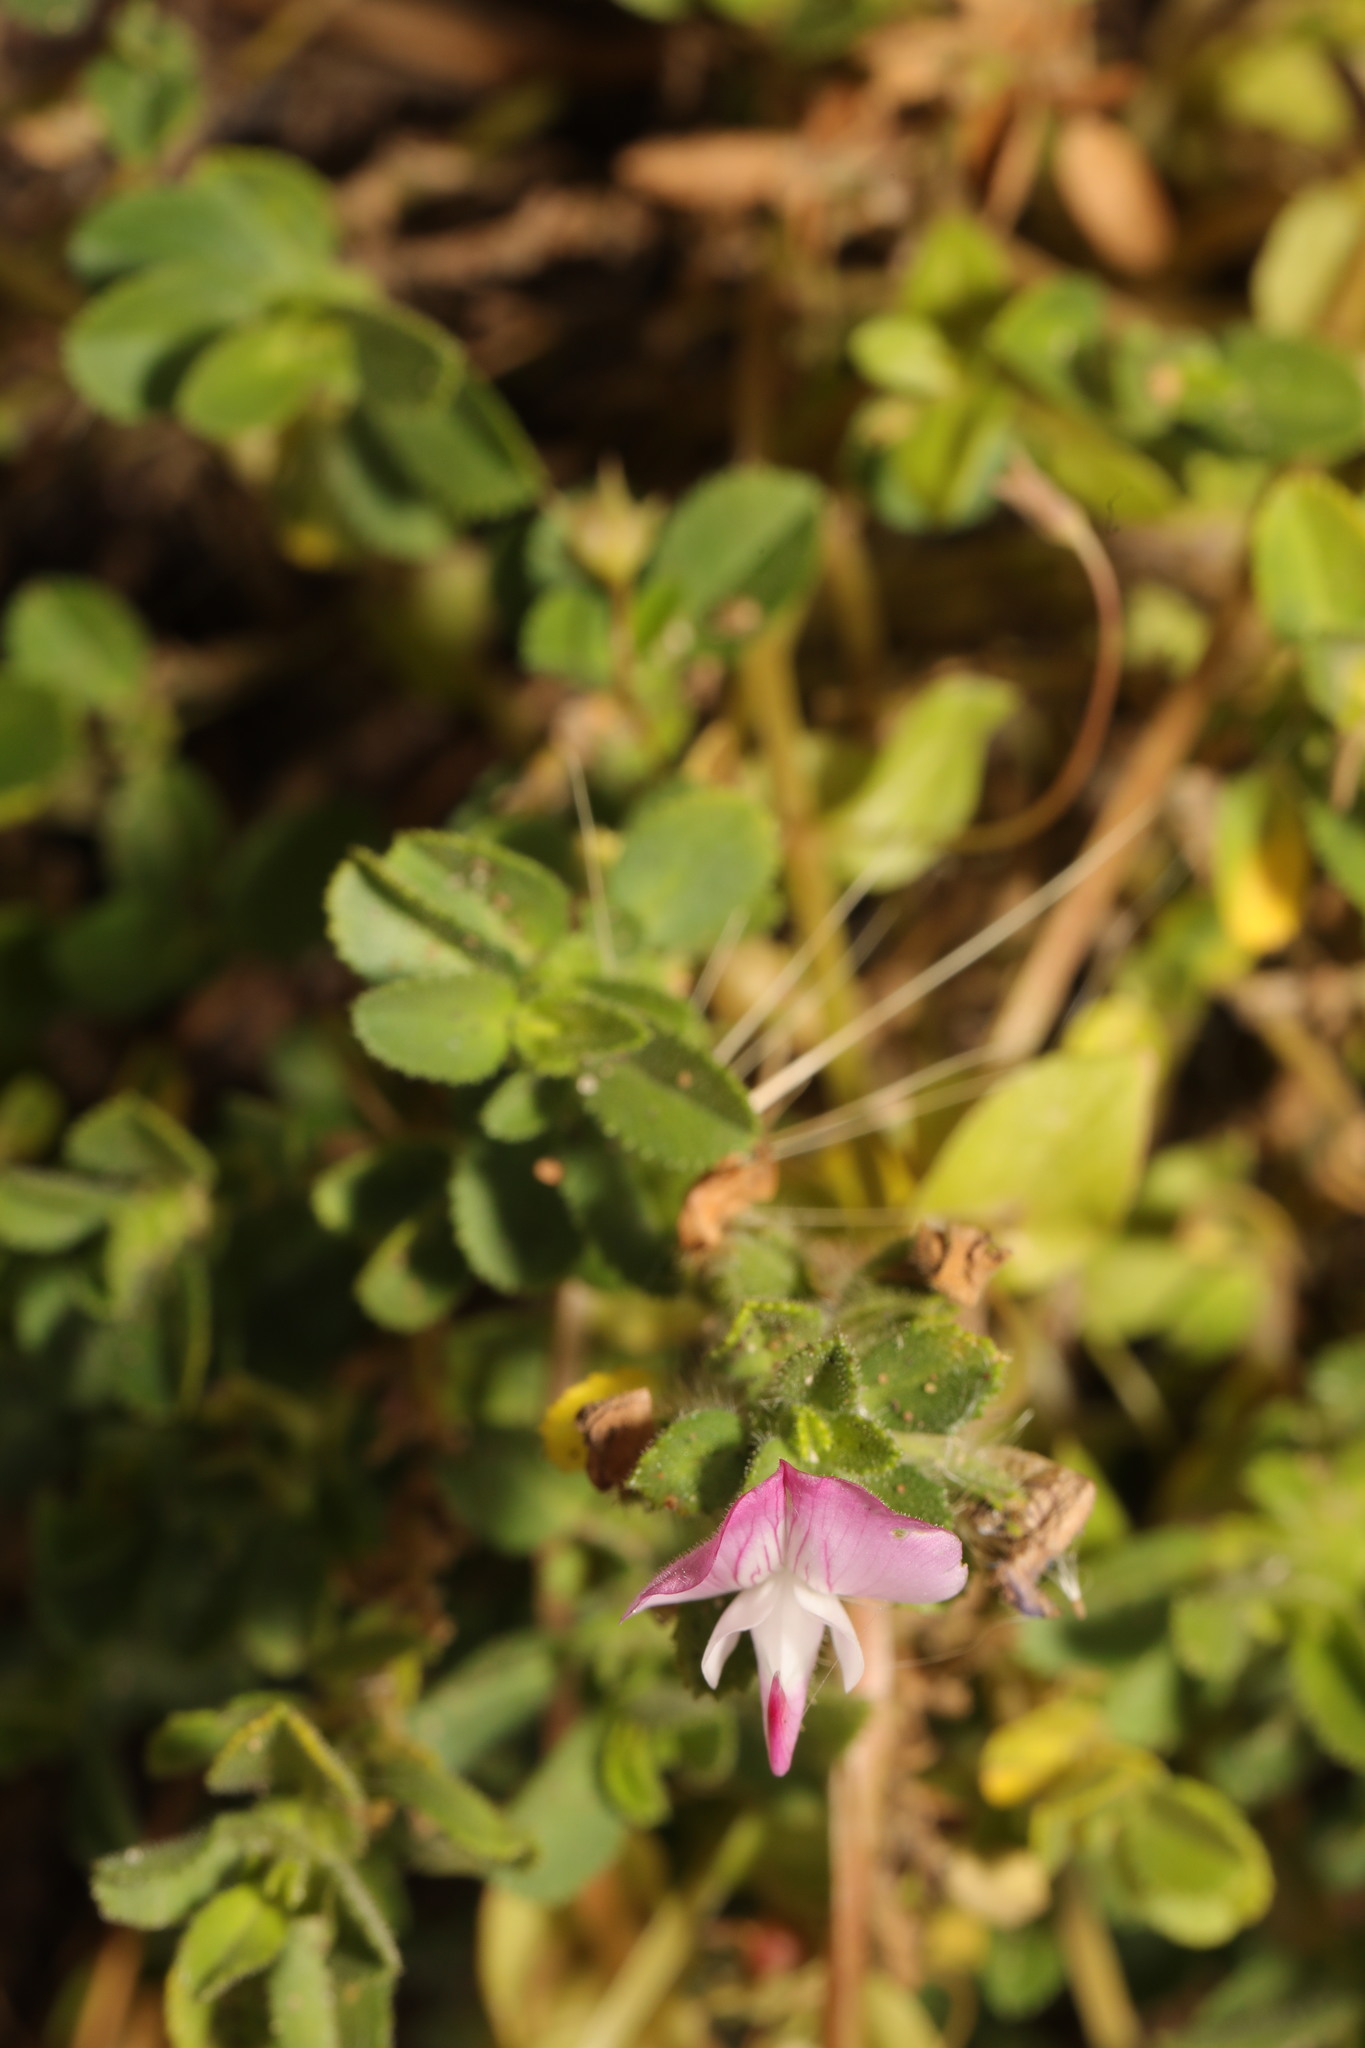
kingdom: Plantae
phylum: Tracheophyta
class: Magnoliopsida
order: Fabales
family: Fabaceae
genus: Ononis
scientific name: Ononis spinosa
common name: Spiny restharrow
